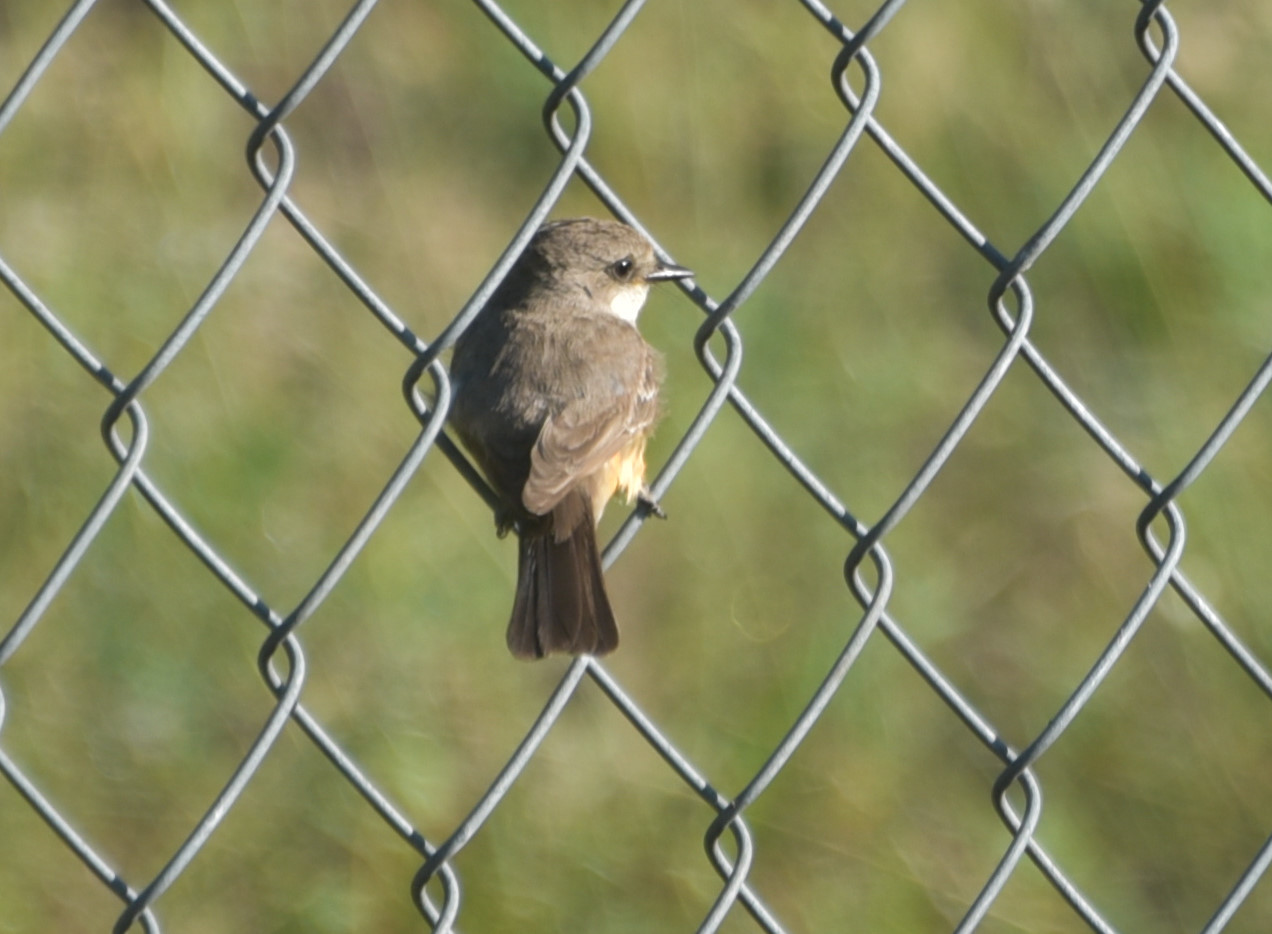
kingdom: Animalia
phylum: Chordata
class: Aves
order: Passeriformes
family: Tyrannidae
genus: Pyrocephalus
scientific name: Pyrocephalus rubinus
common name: Vermilion flycatcher
